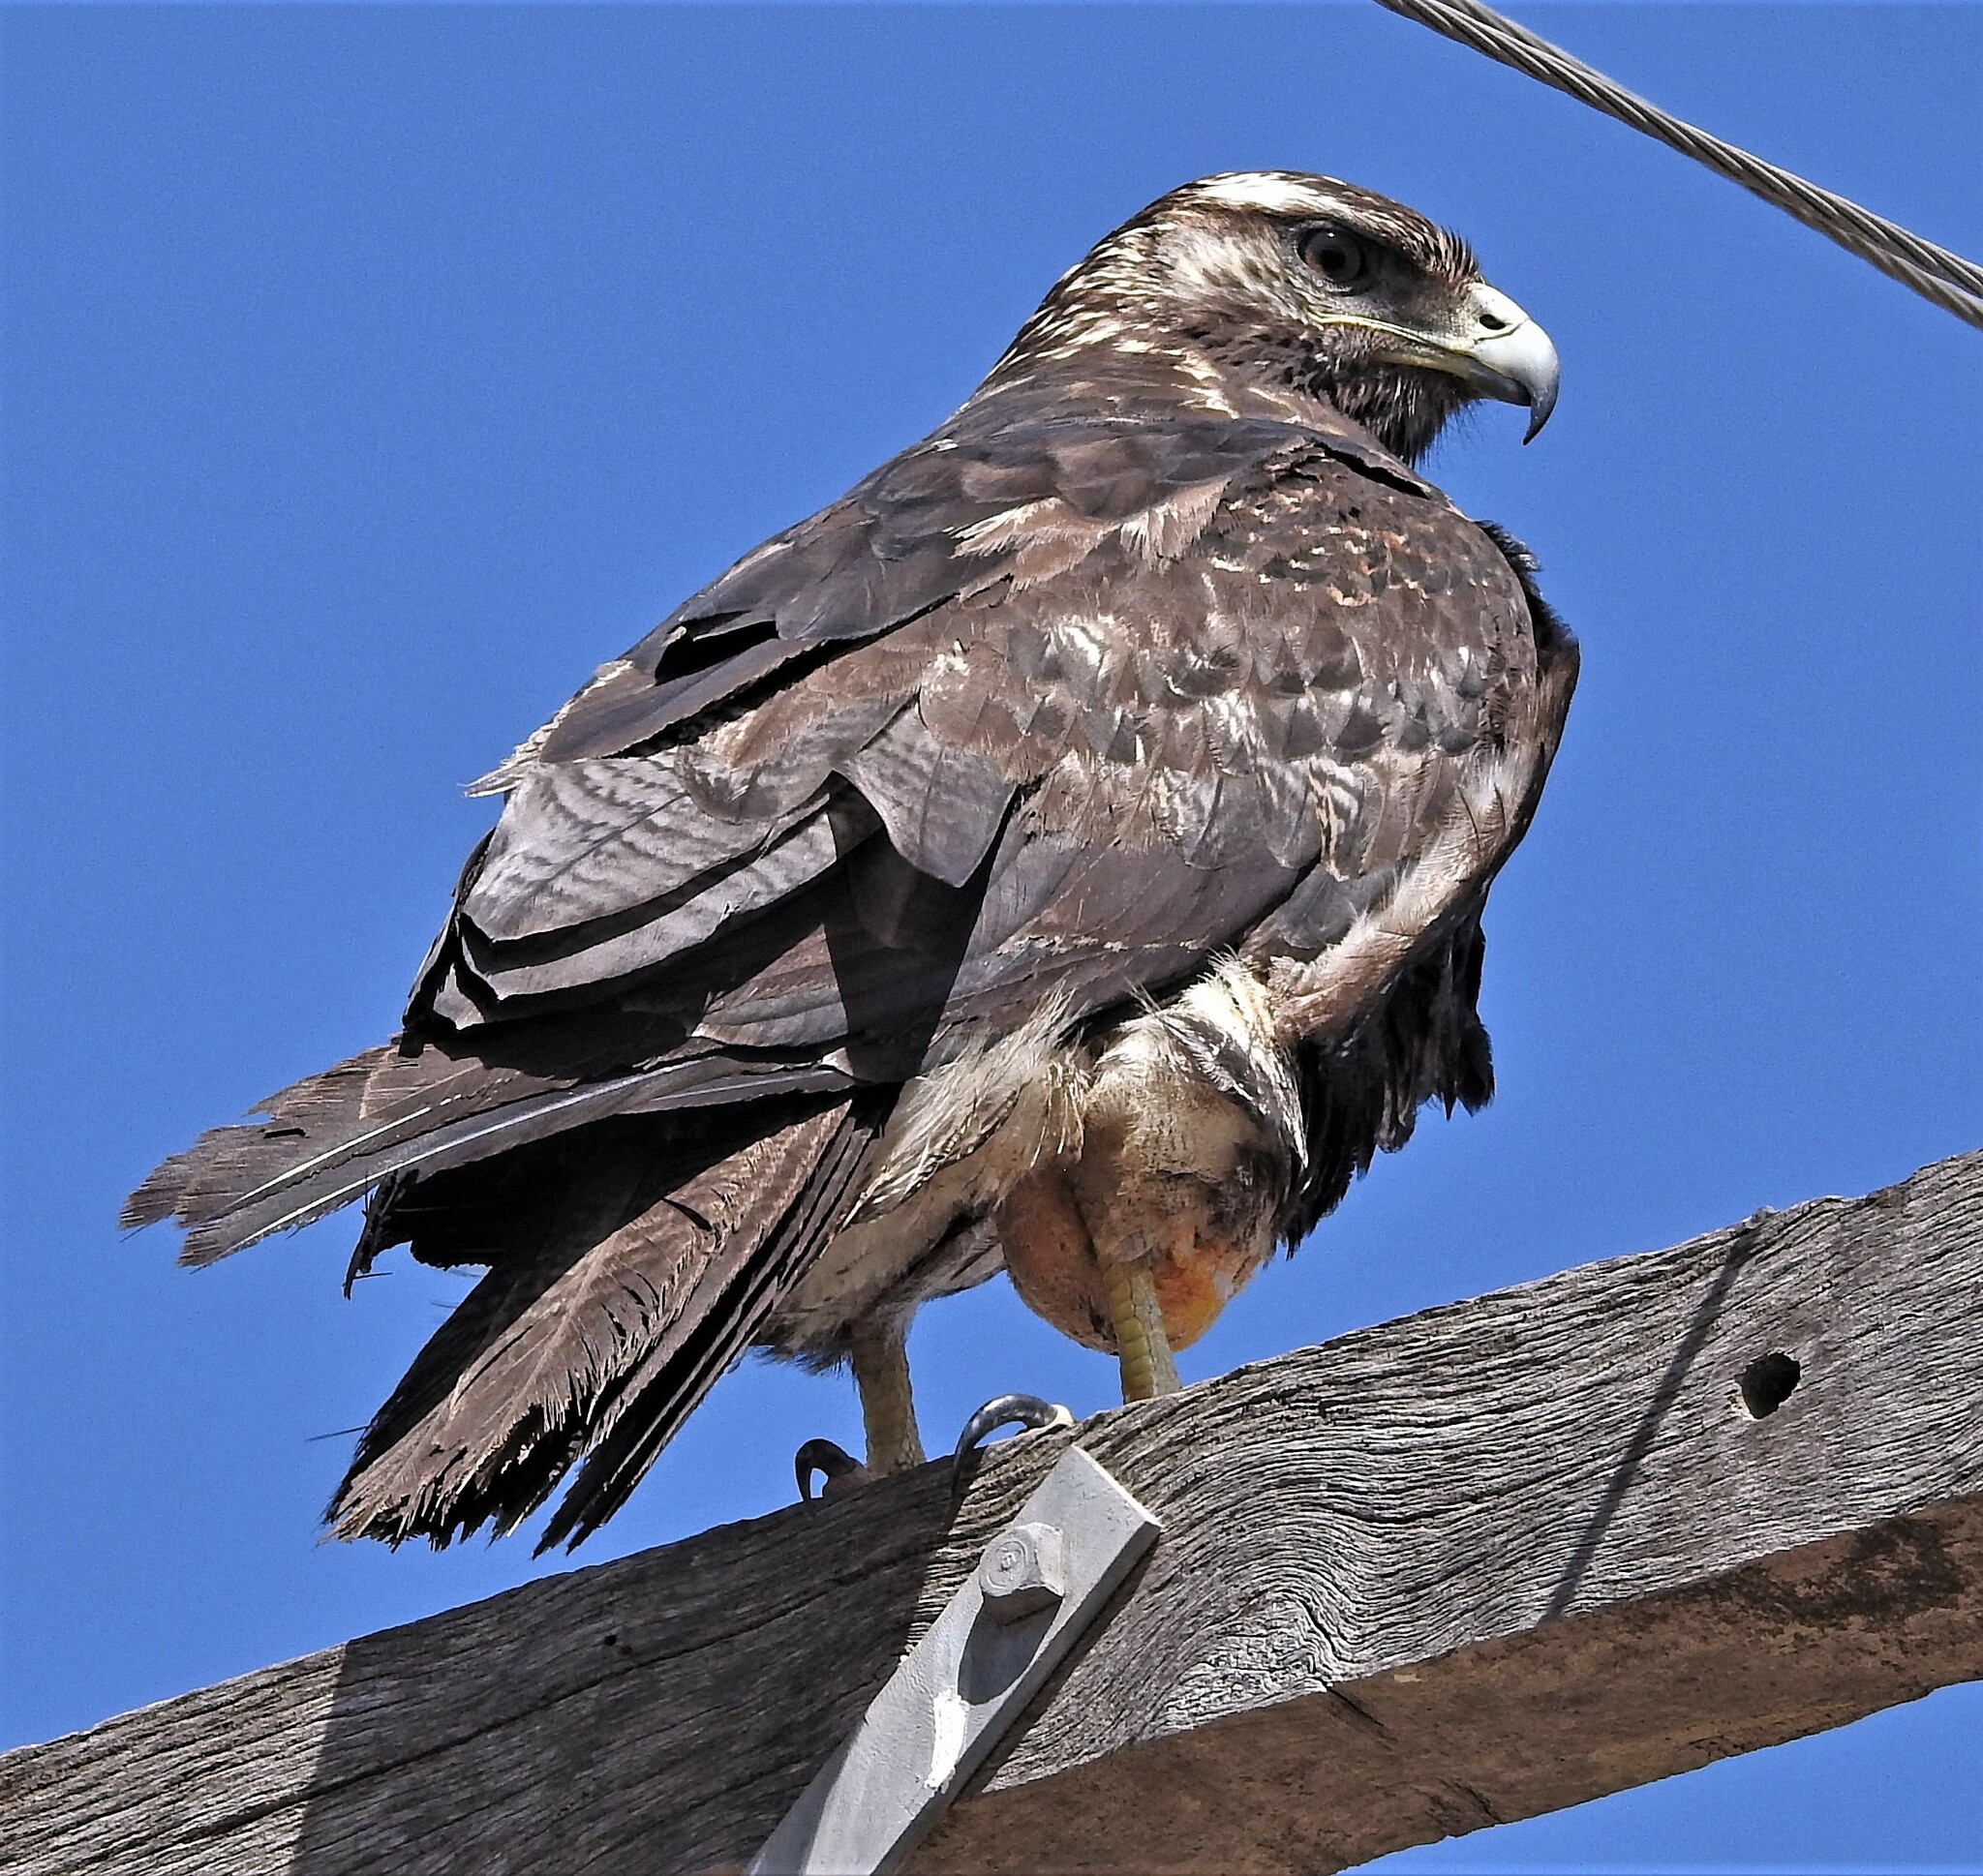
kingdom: Animalia
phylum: Chordata
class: Aves
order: Accipitriformes
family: Accipitridae
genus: Geranoaetus
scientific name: Geranoaetus melanoleucus
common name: Black-chested buzzard-eagle
